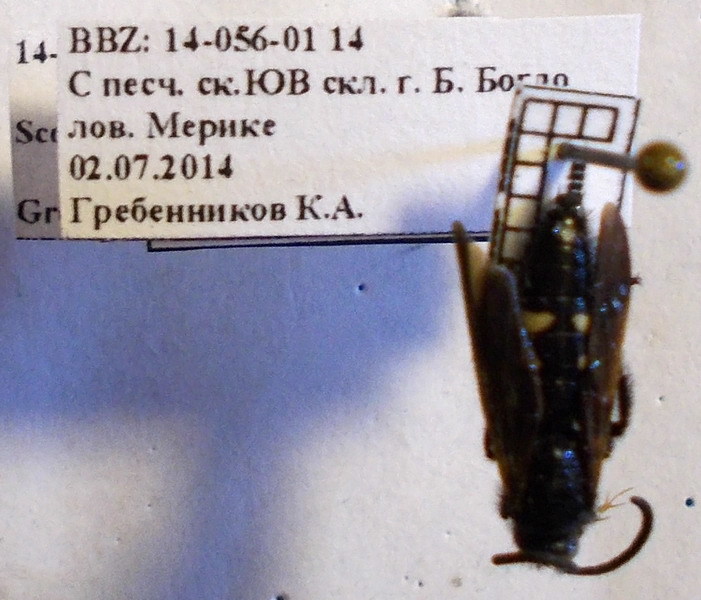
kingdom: Animalia
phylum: Arthropoda
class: Insecta
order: Hymenoptera
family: Vespidae
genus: Vespa
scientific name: Vespa sexmaculata
